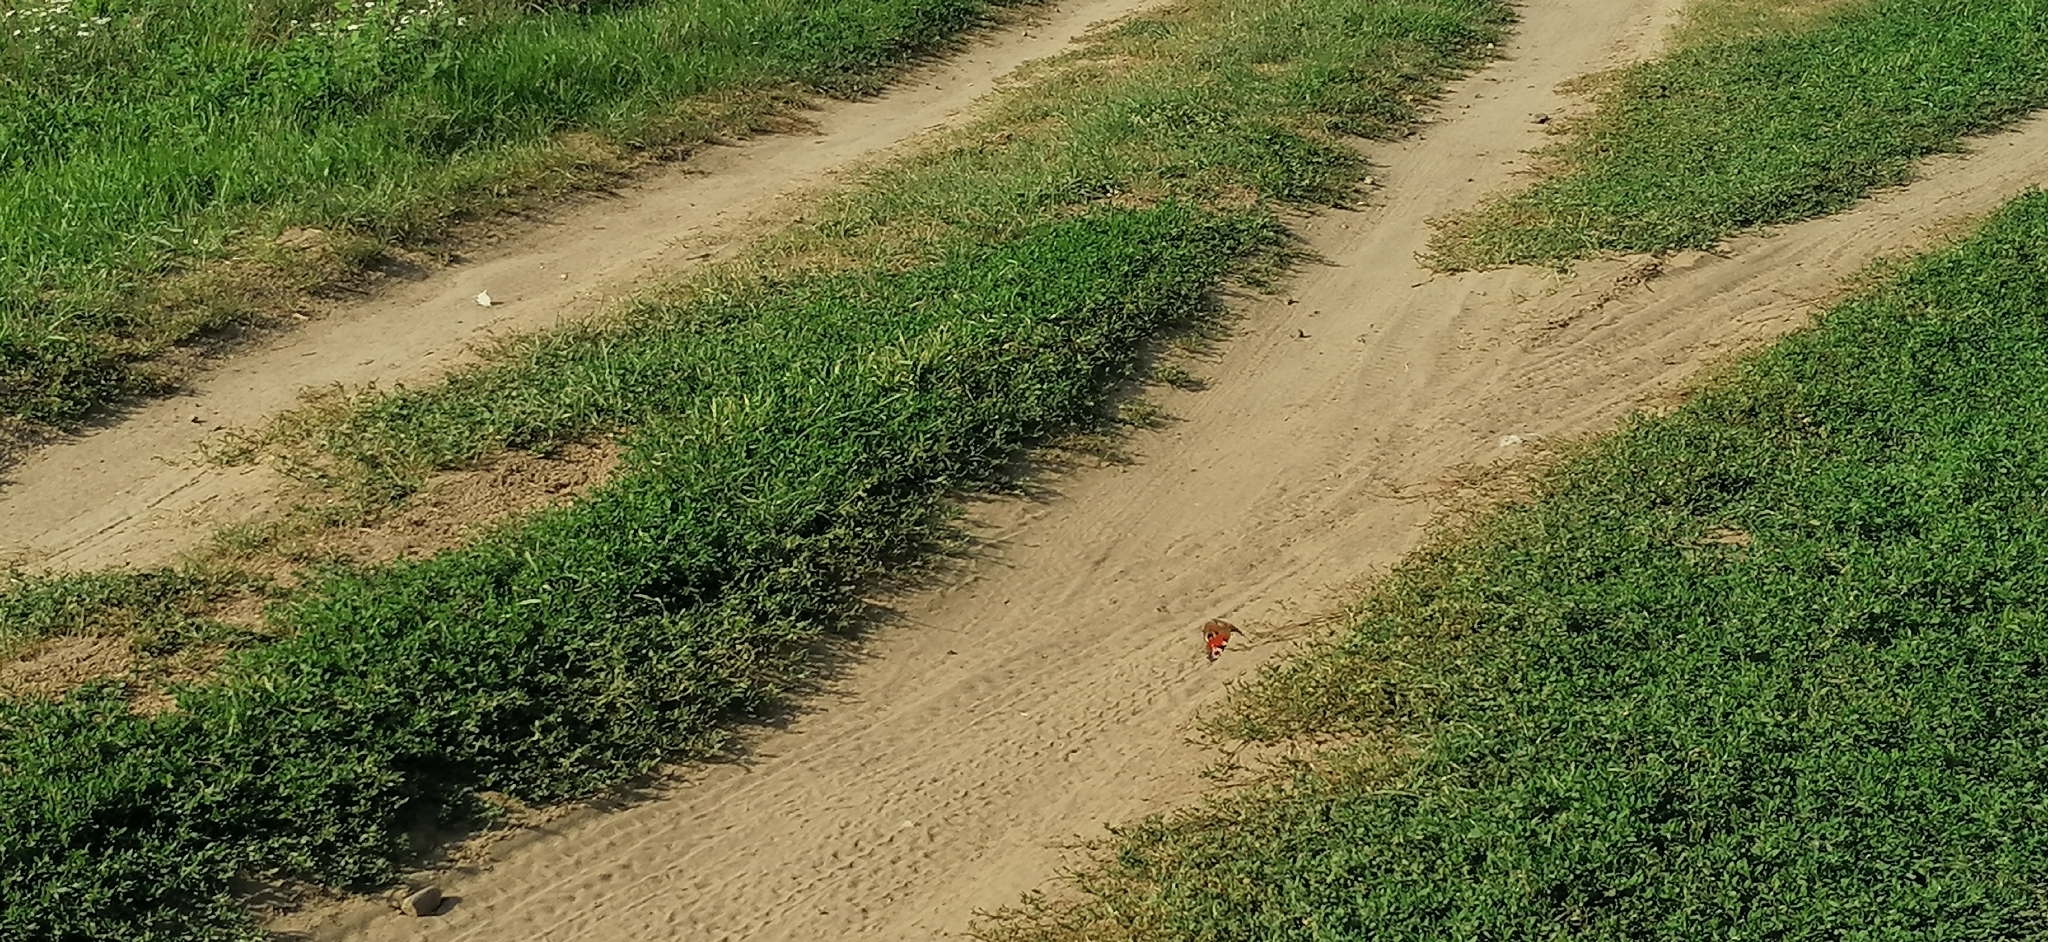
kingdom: Animalia
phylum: Arthropoda
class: Insecta
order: Lepidoptera
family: Nymphalidae
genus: Aglais
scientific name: Aglais io
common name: Peacock
